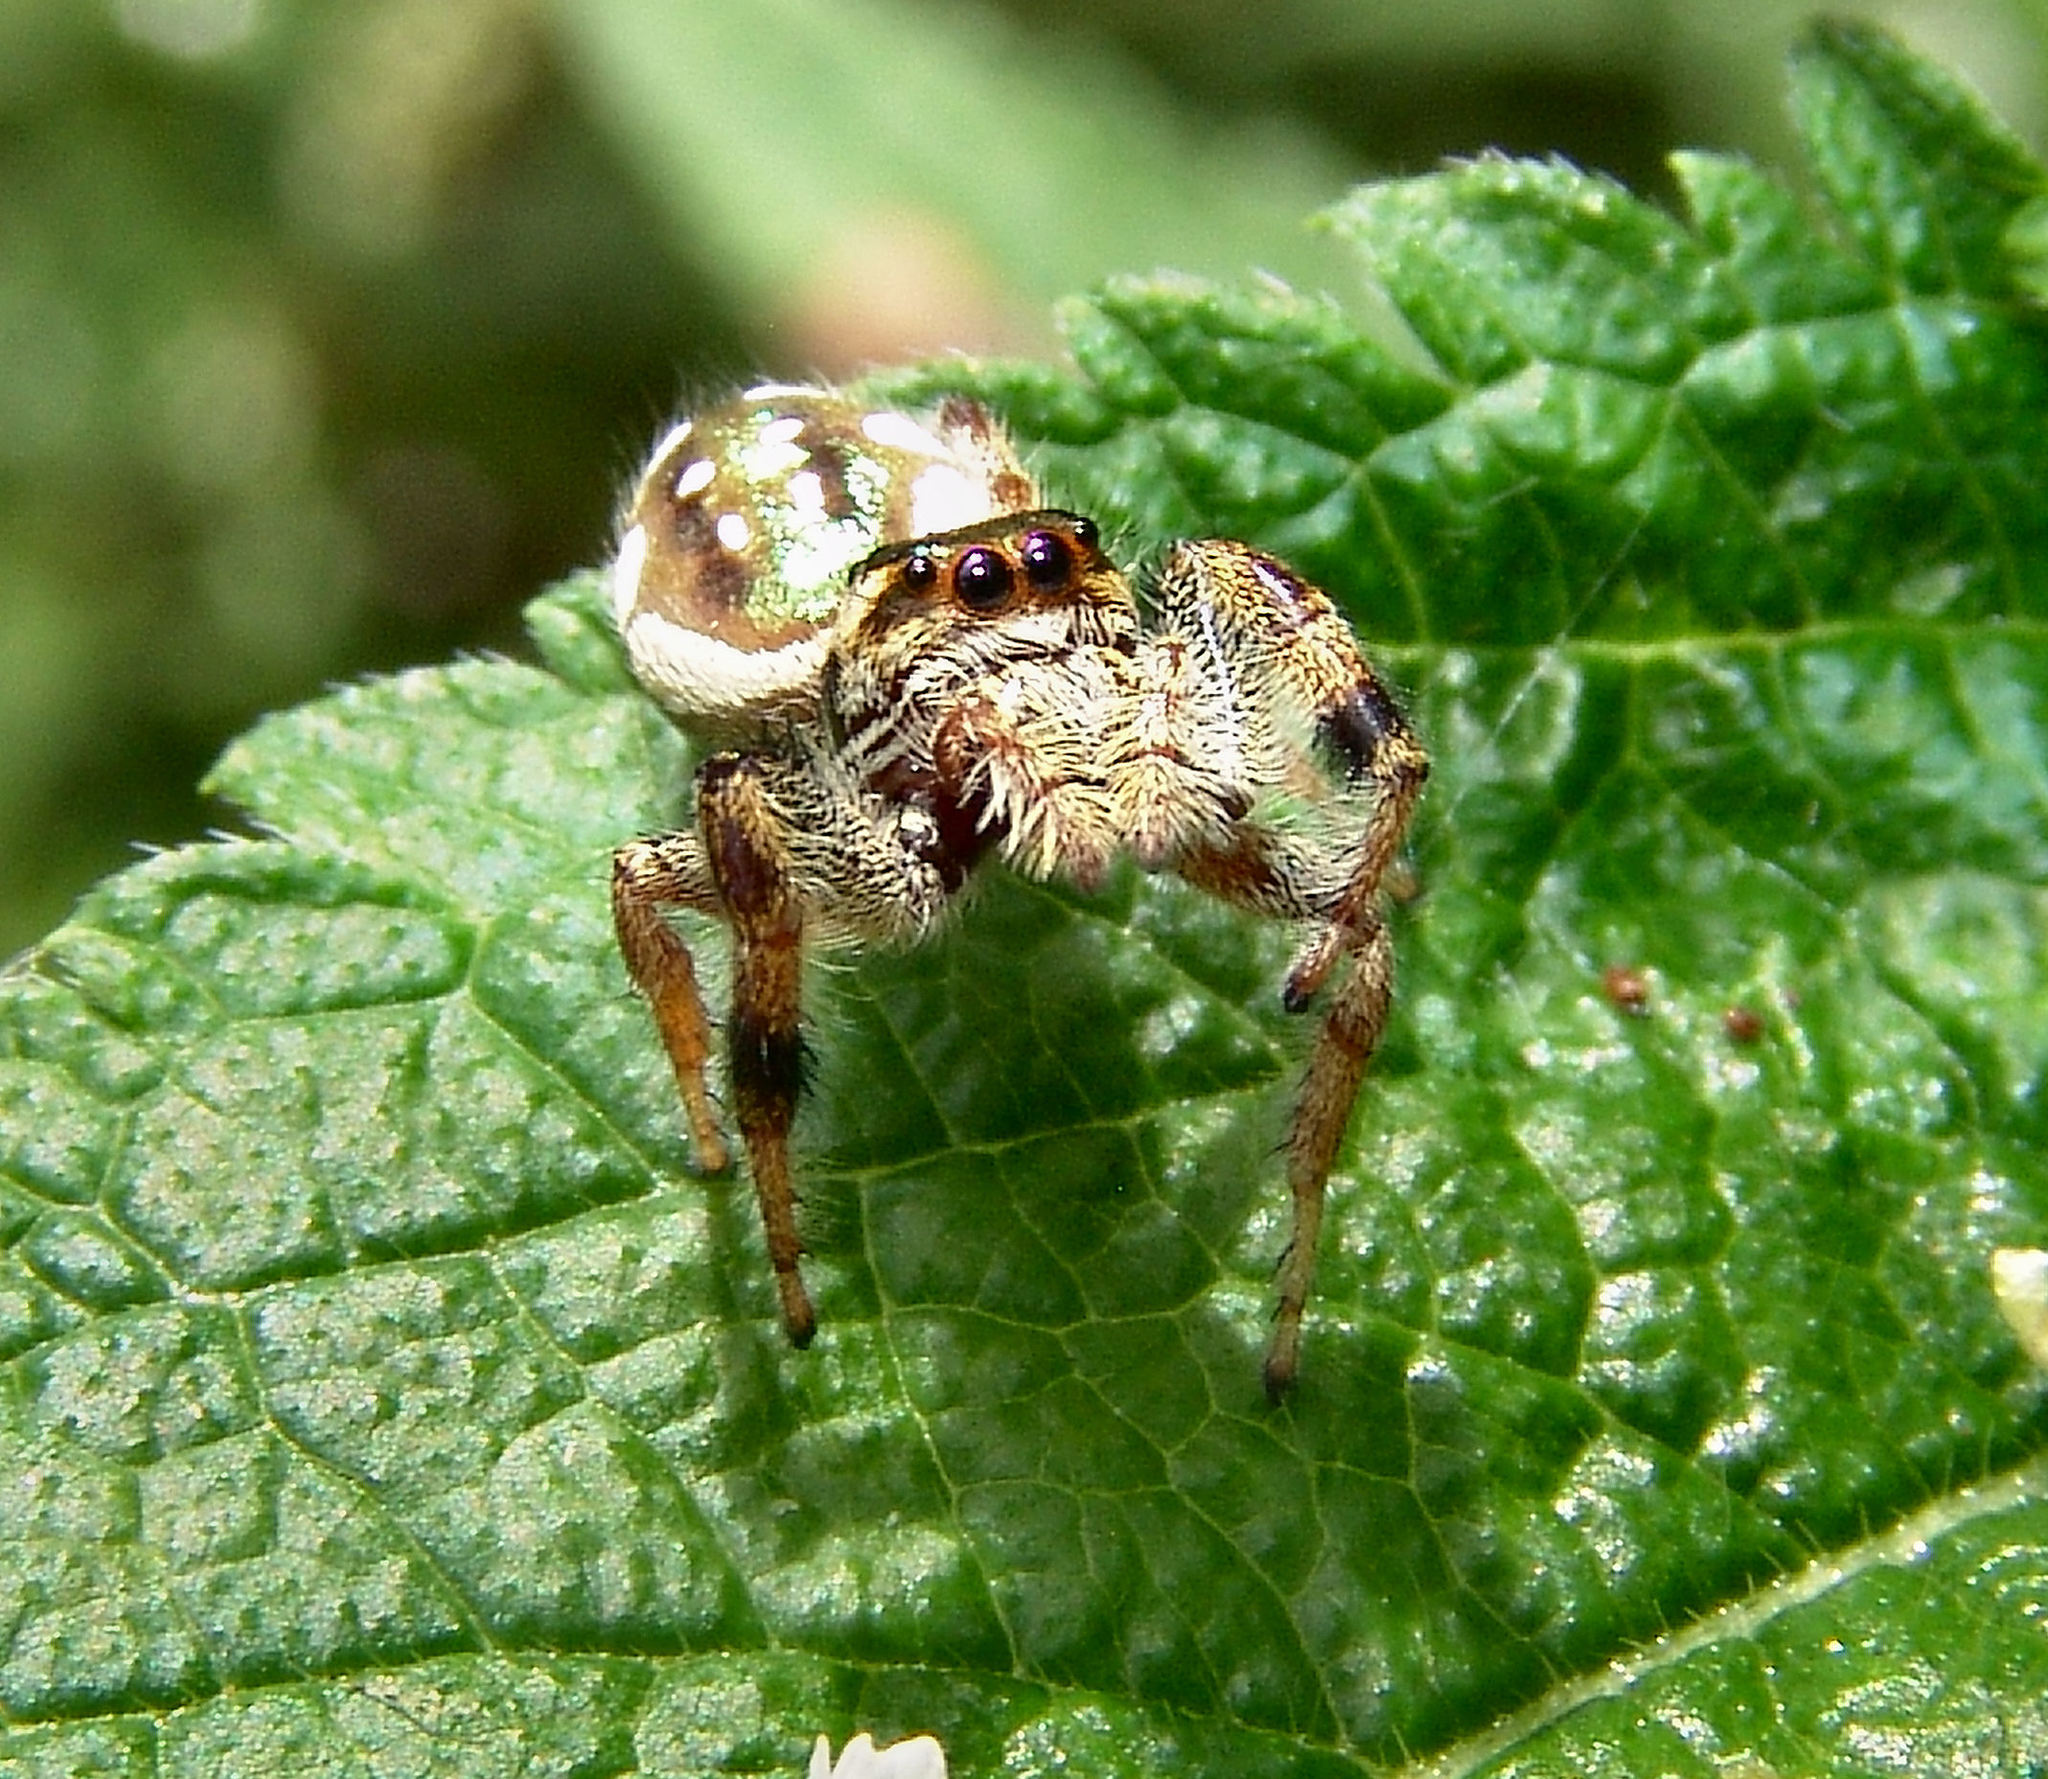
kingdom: Animalia
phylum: Arthropoda
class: Arachnida
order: Araneae
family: Salticidae
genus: Paraphidippus
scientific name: Paraphidippus aurantius
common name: Jumping spiders
